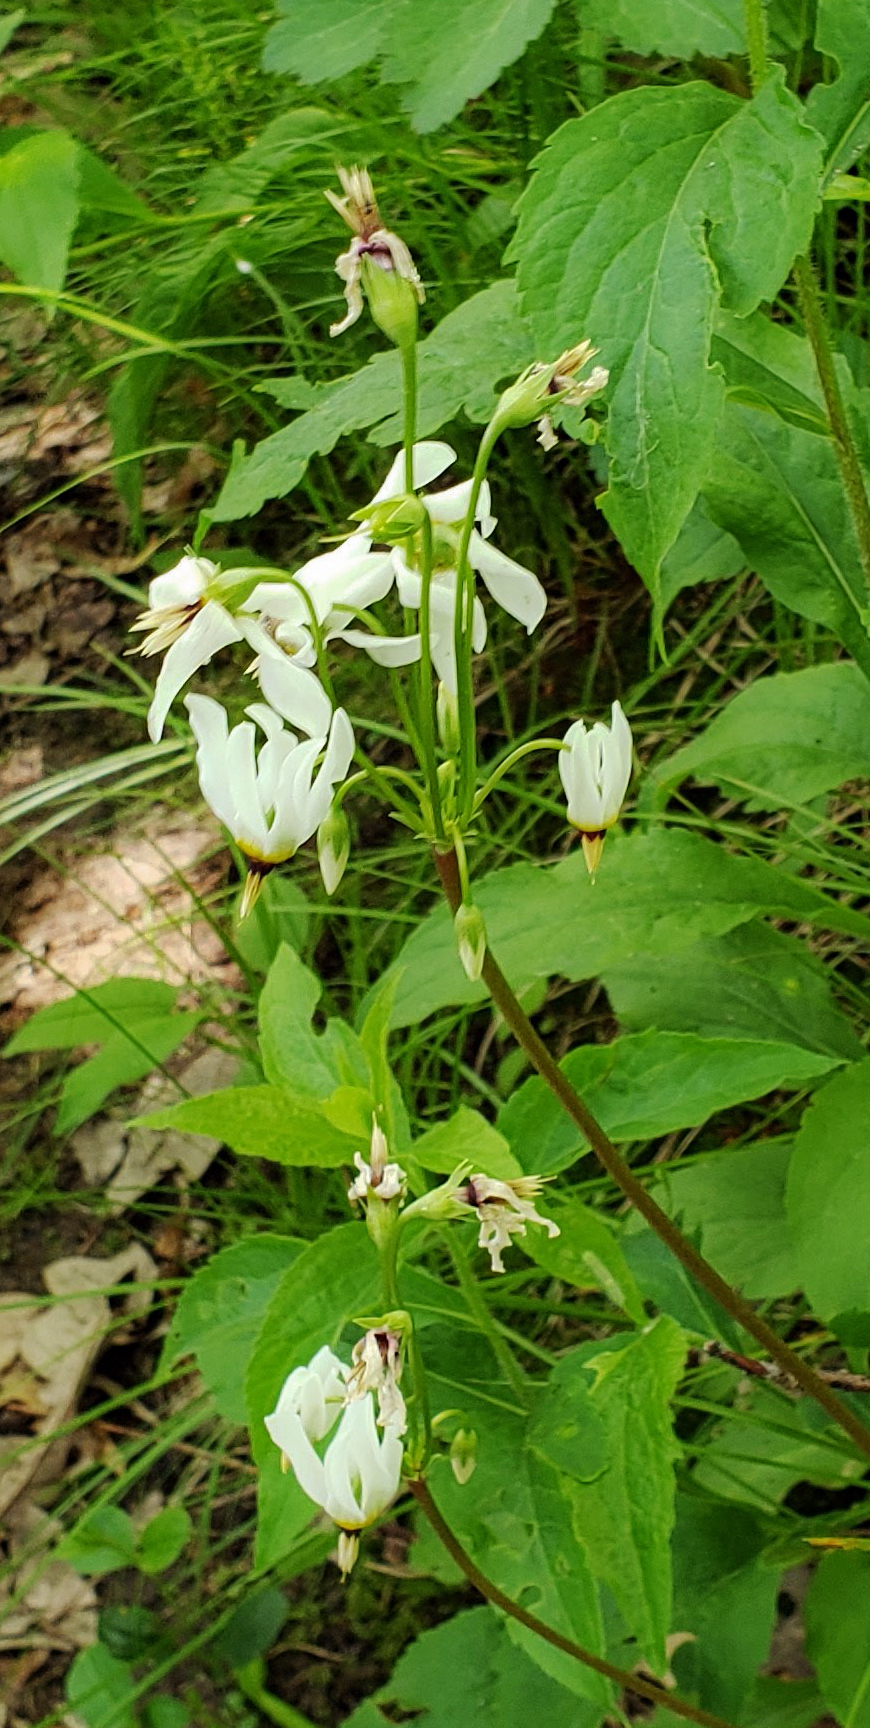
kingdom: Plantae
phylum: Tracheophyta
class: Magnoliopsida
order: Ericales
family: Primulaceae
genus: Dodecatheon
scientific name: Dodecatheon meadia
